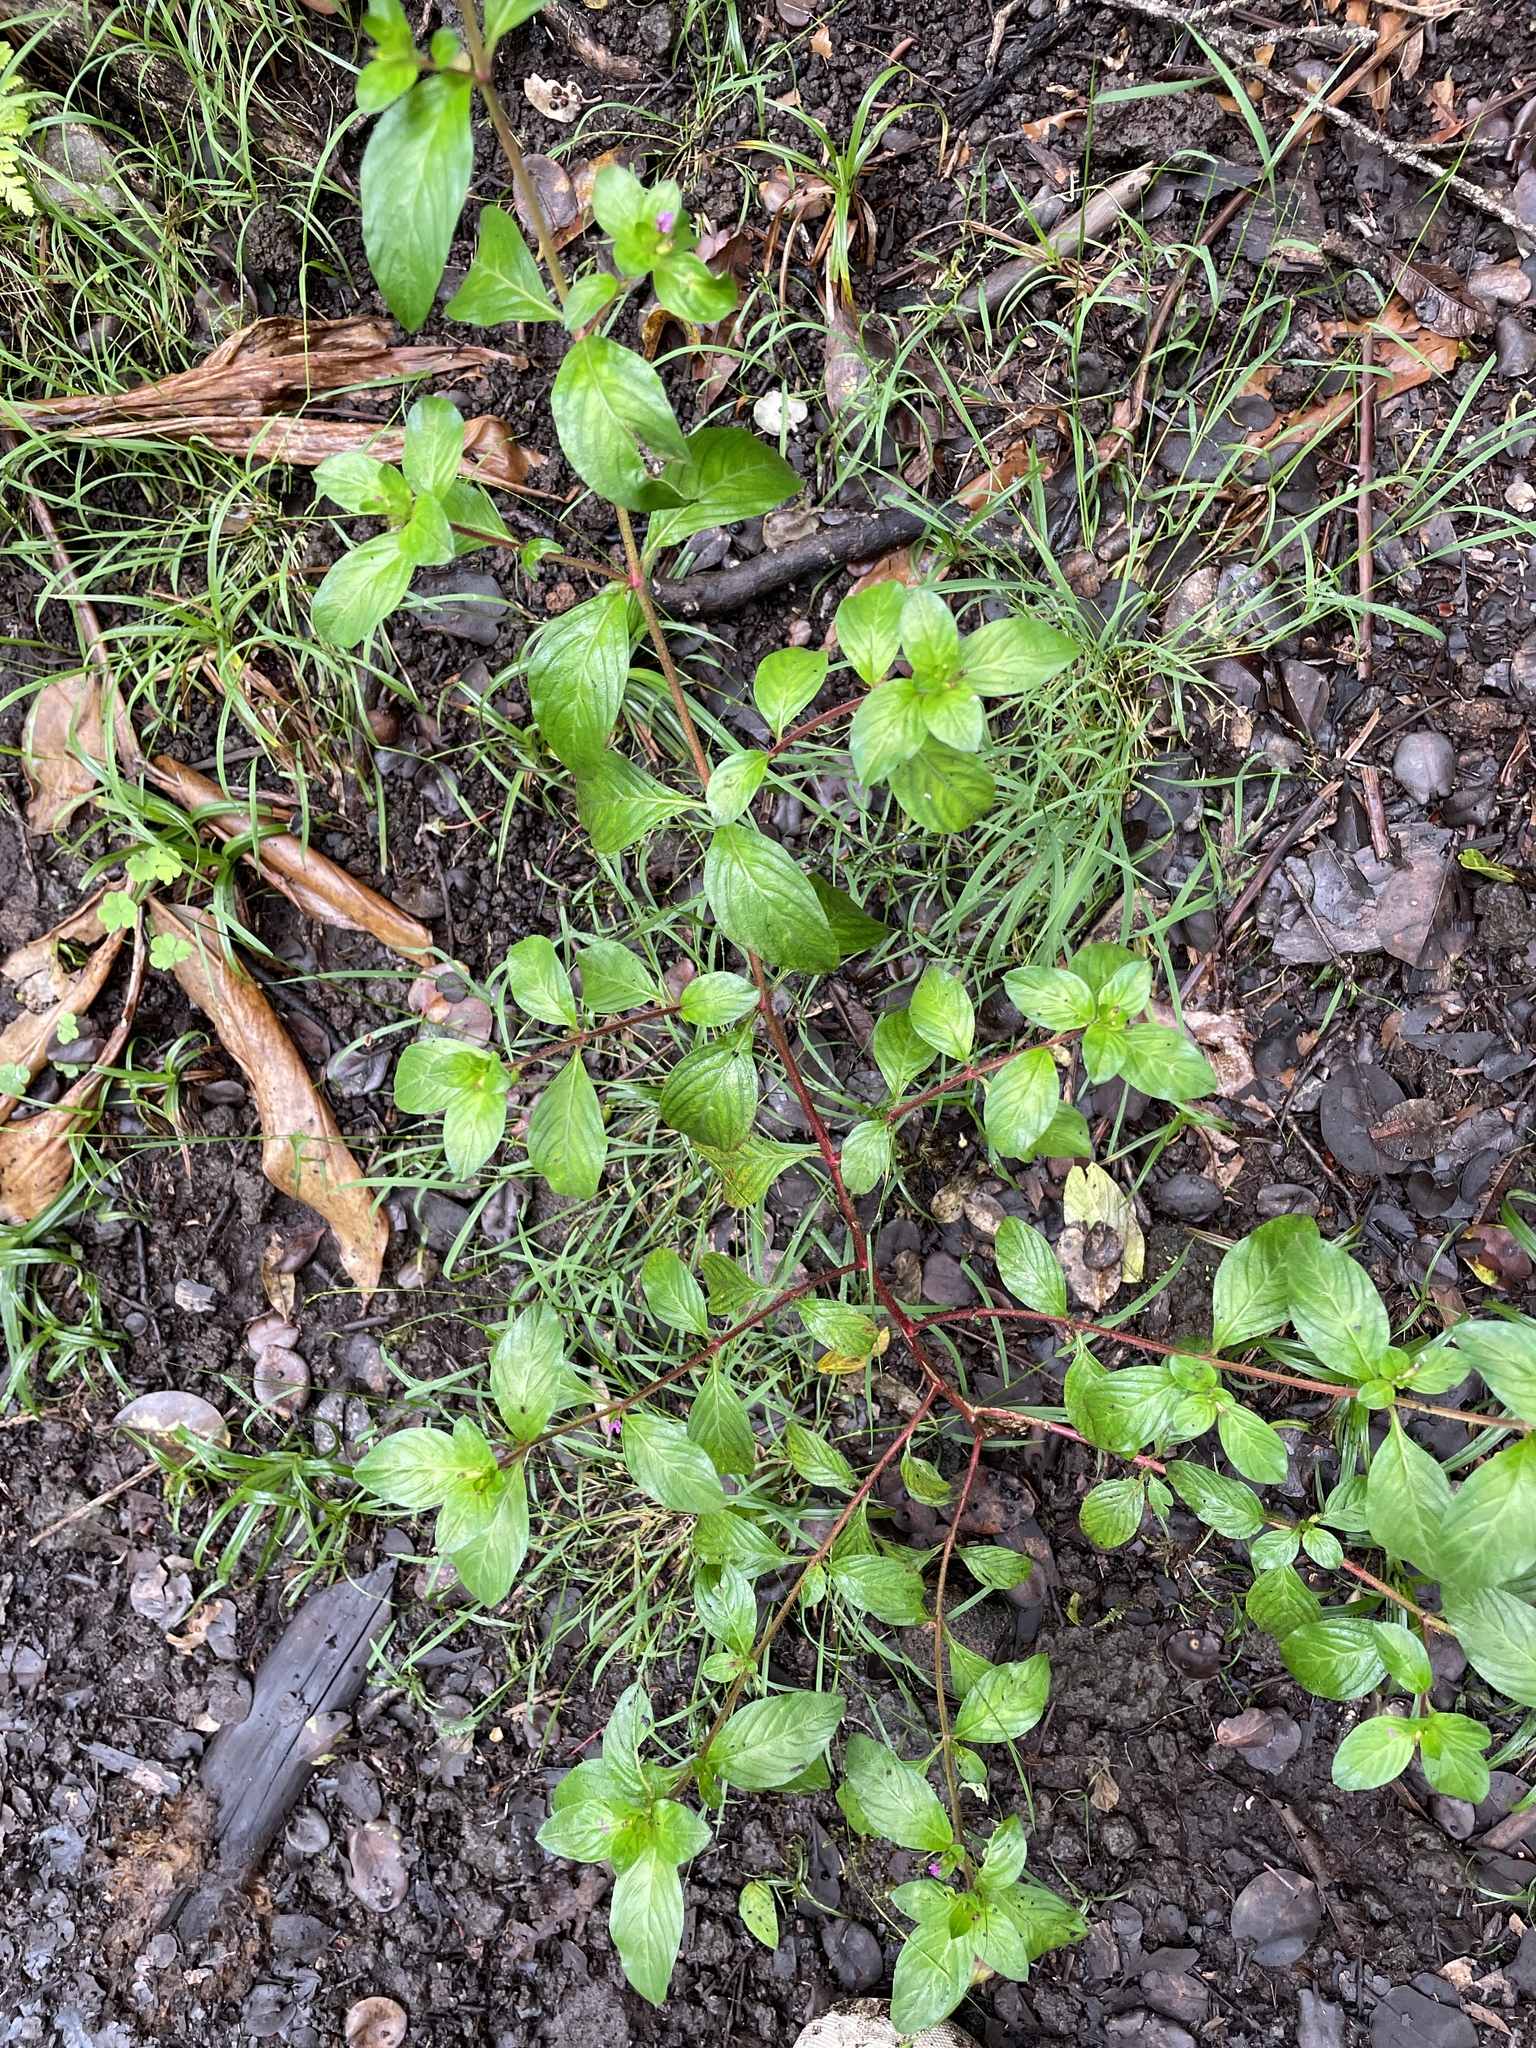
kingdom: Plantae
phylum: Tracheophyta
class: Magnoliopsida
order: Myrtales
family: Lythraceae
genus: Cuphea
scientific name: Cuphea carthagenensis
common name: Colombian waxweed
